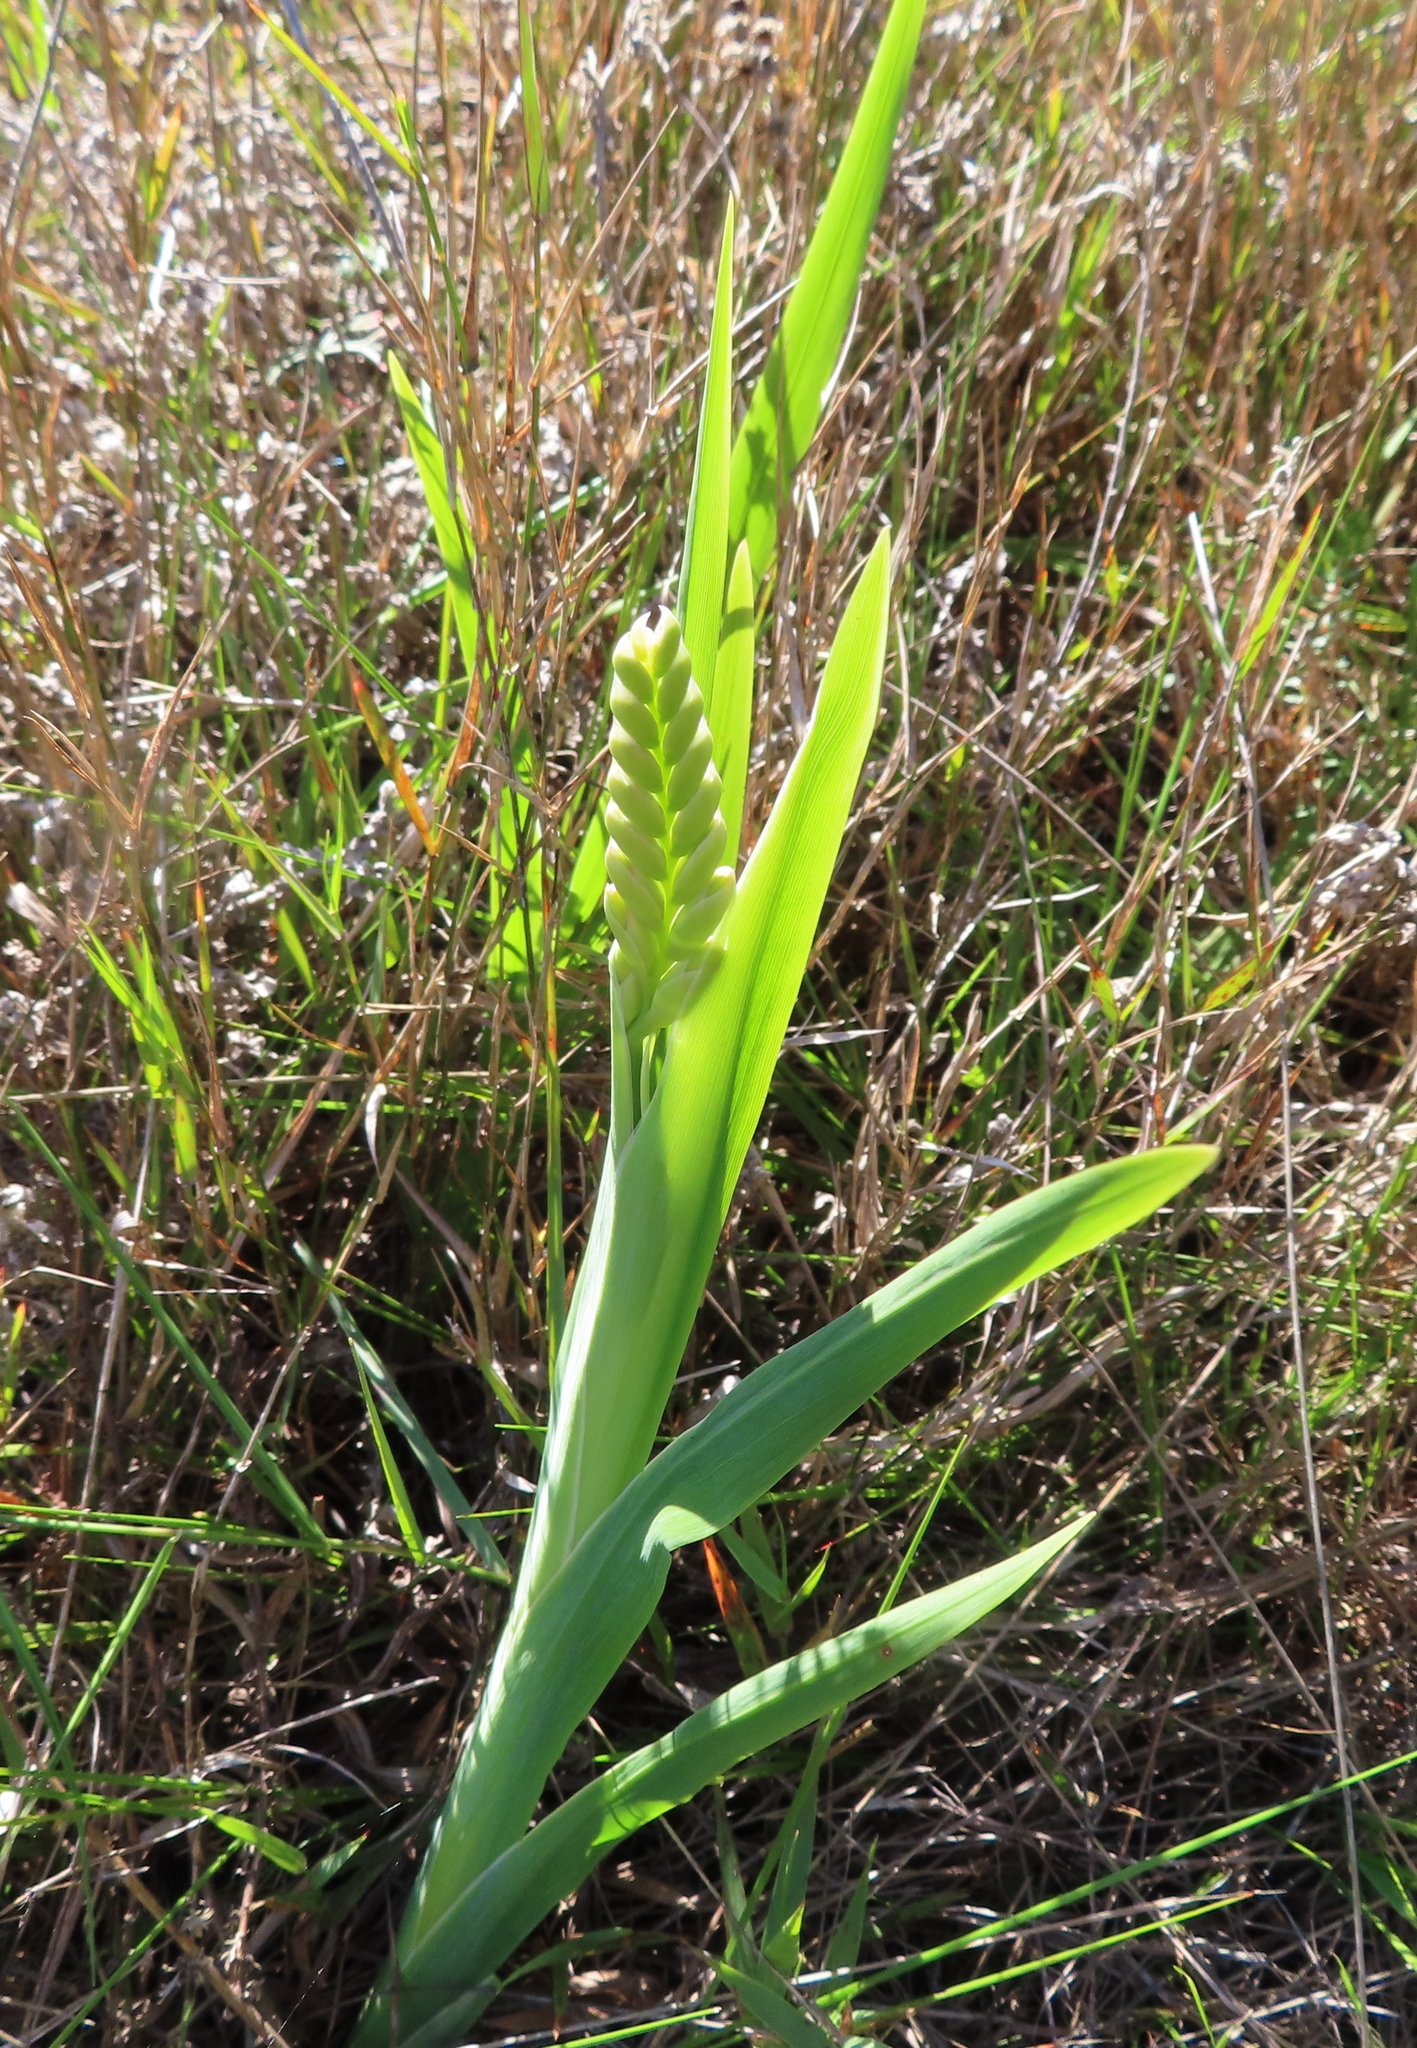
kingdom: Plantae
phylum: Tracheophyta
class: Liliopsida
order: Asparagales
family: Iridaceae
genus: Chasmanthe
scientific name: Chasmanthe aethiopica
